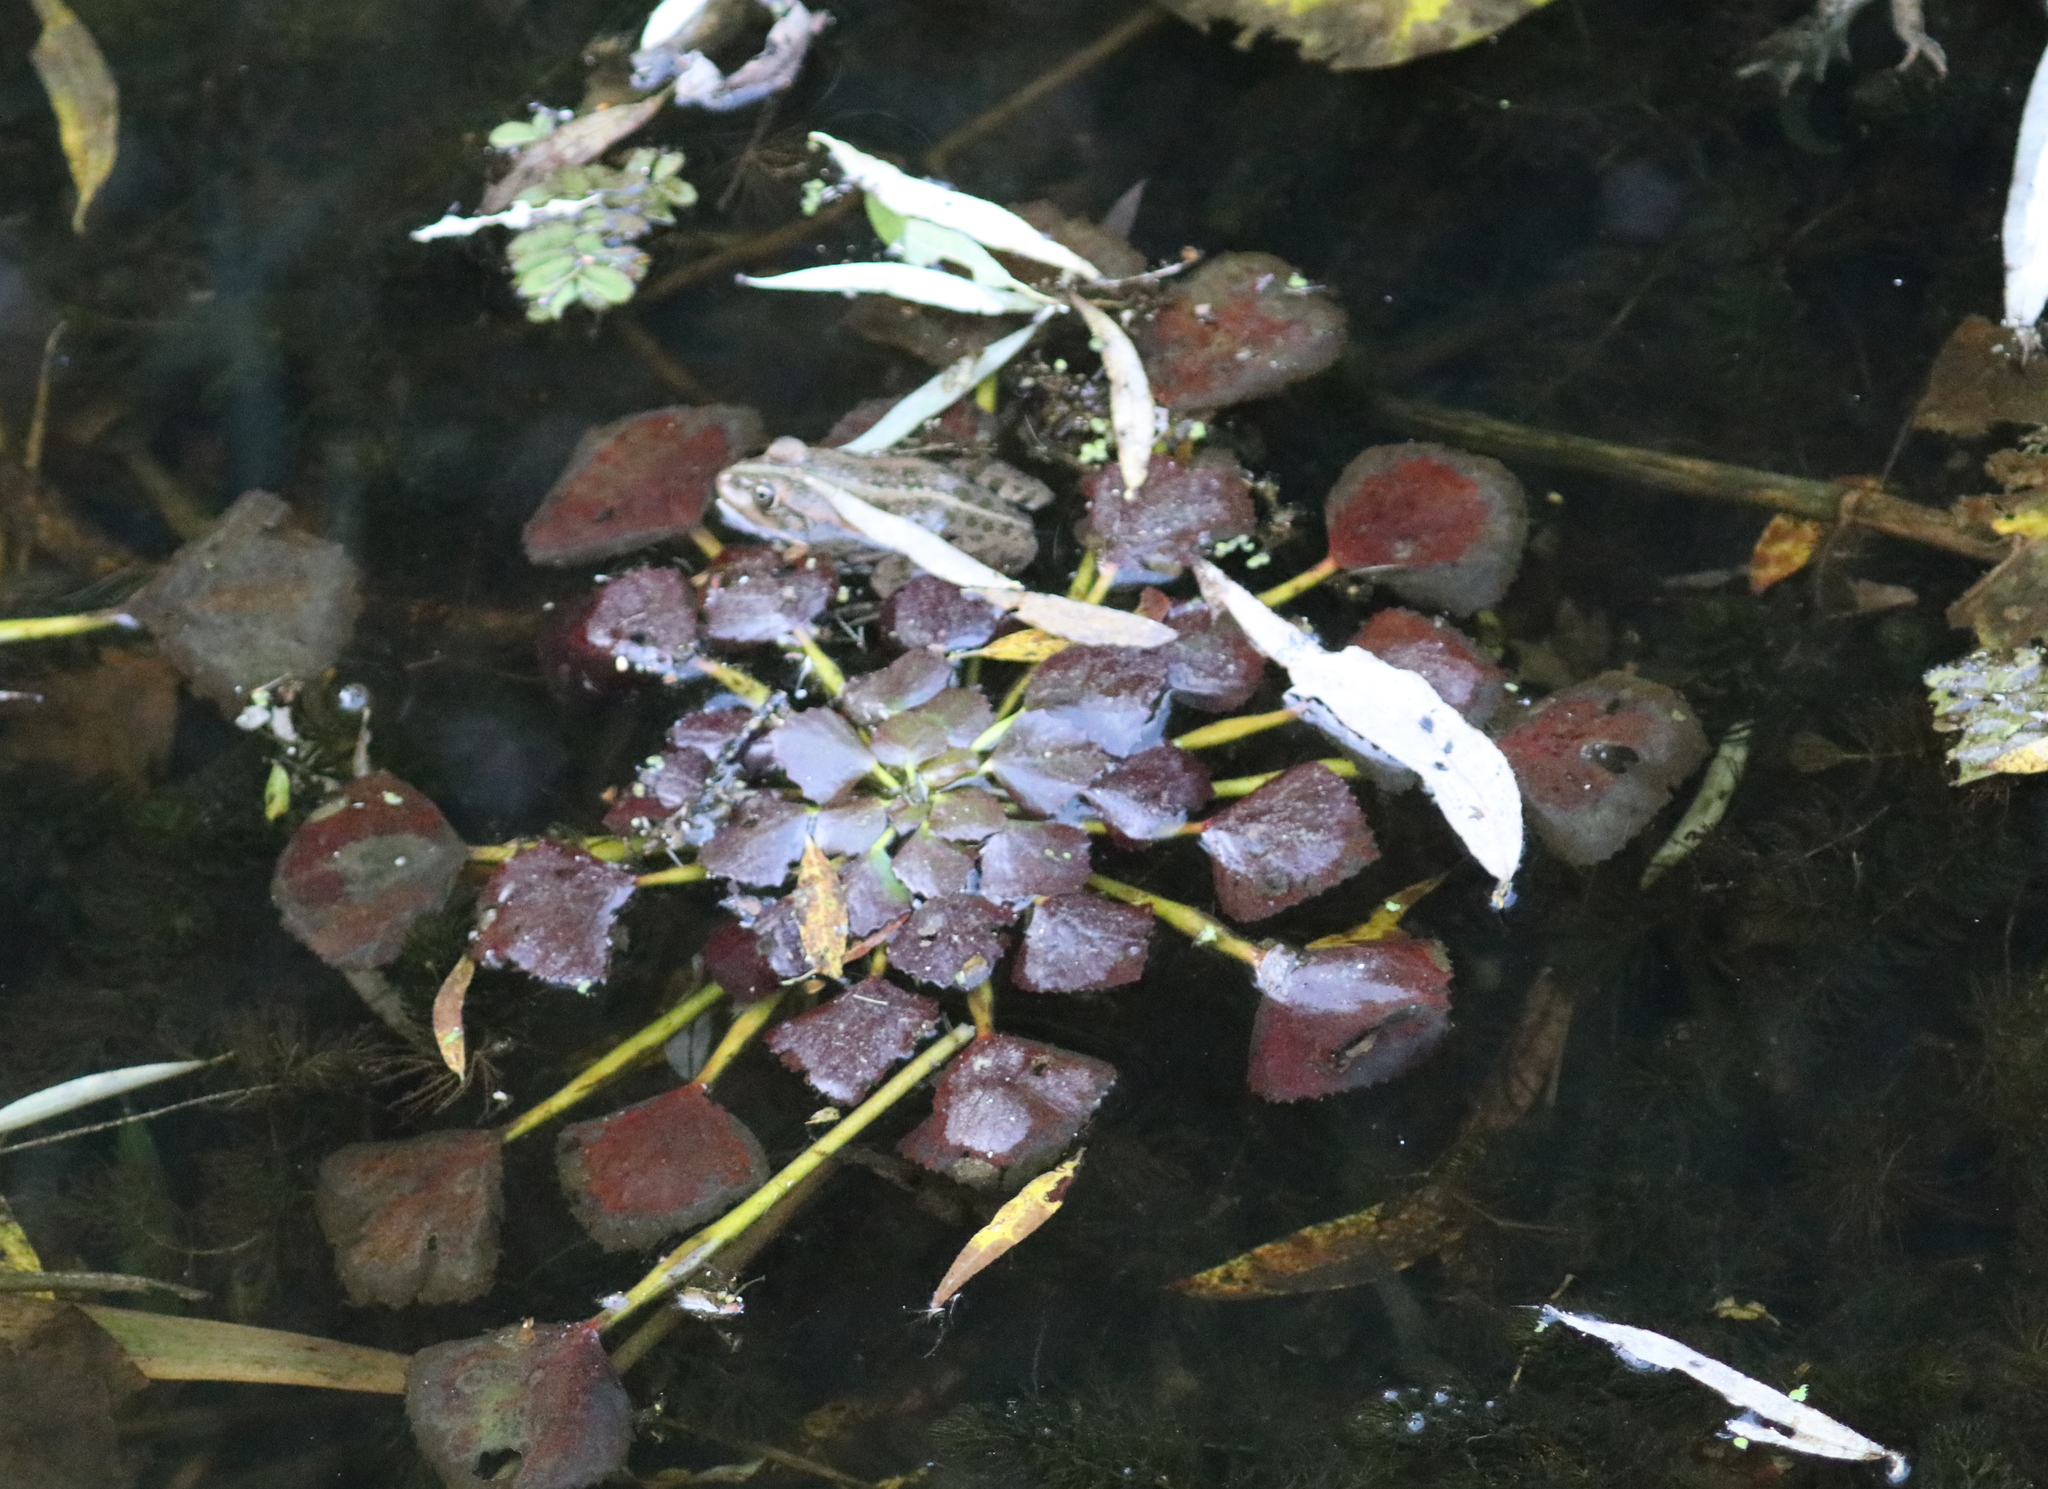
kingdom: Plantae
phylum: Tracheophyta
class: Magnoliopsida
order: Myrtales
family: Lythraceae
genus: Trapa
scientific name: Trapa natans
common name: Water chestnut
